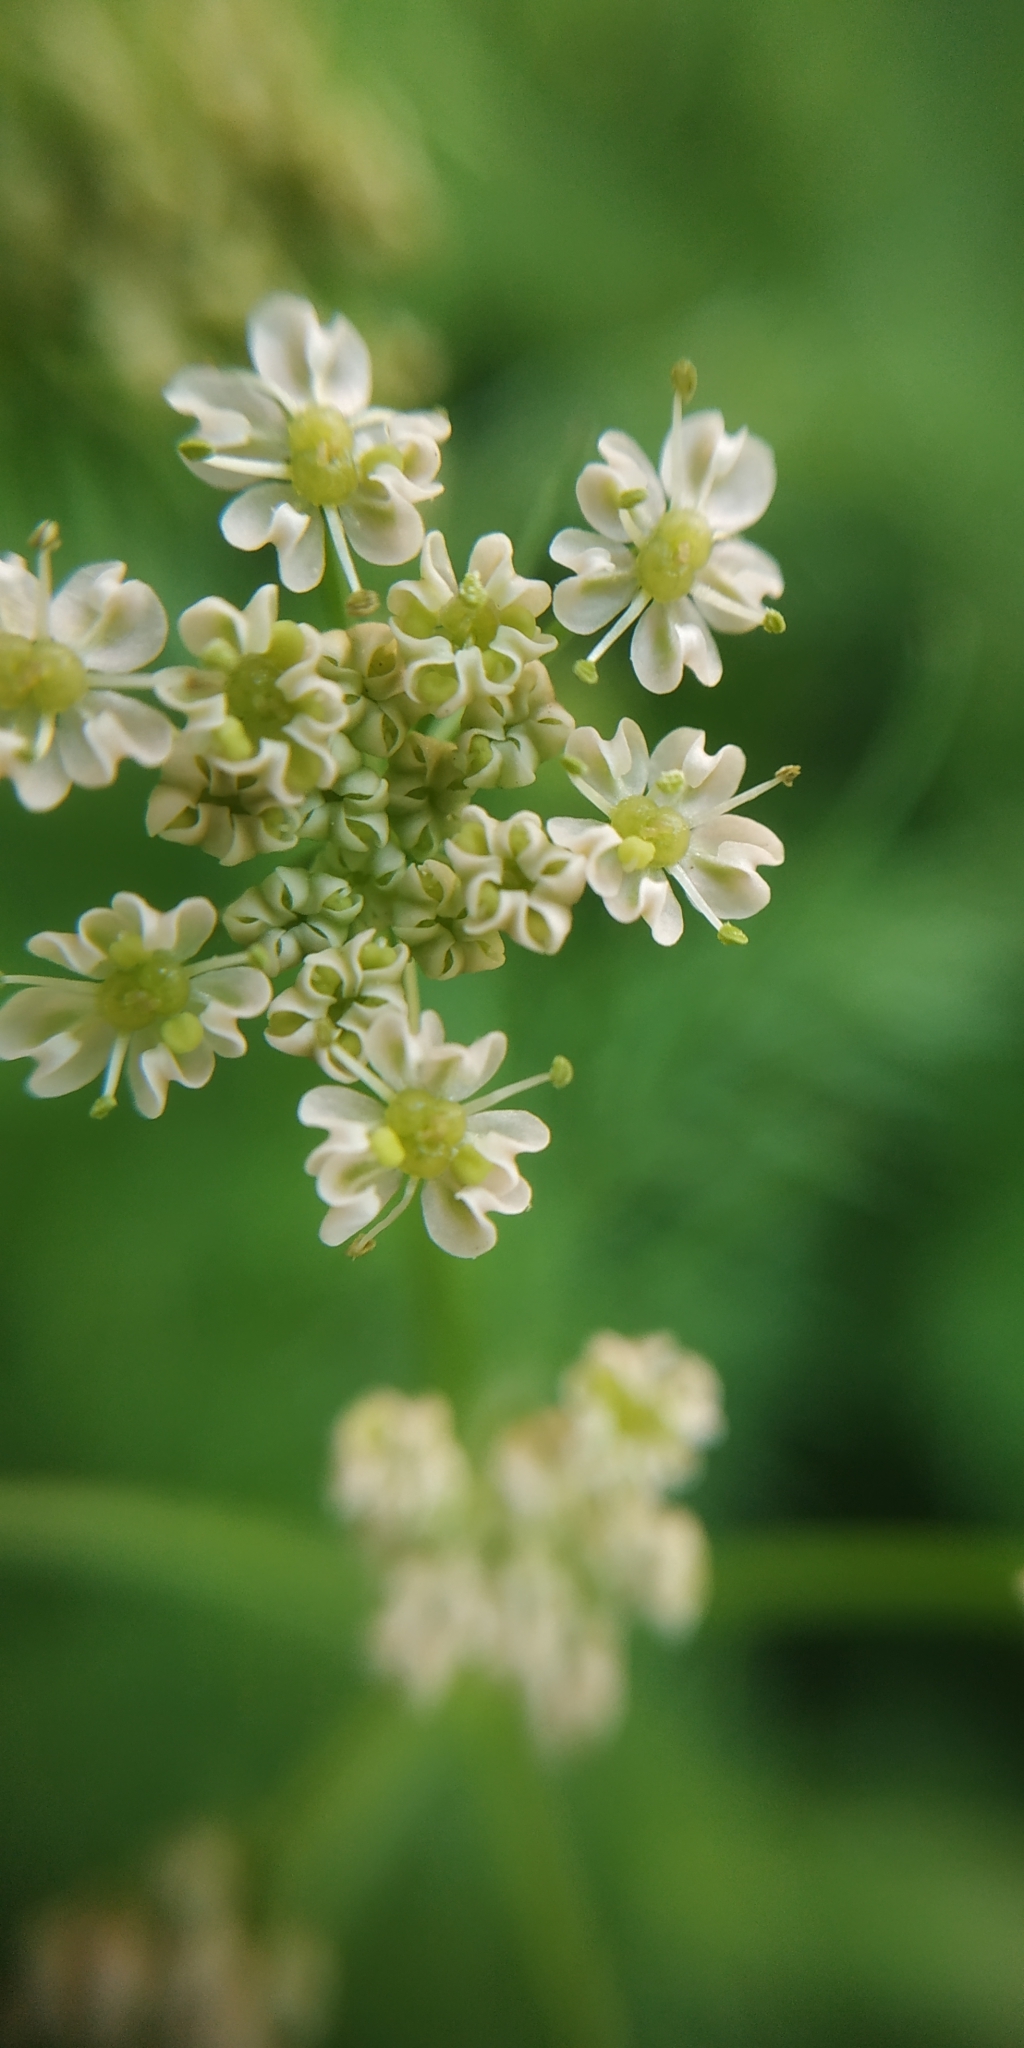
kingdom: Plantae
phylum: Tracheophyta
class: Magnoliopsida
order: Apiales
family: Apiaceae
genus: Carum
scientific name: Carum carvi
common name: Caraway
